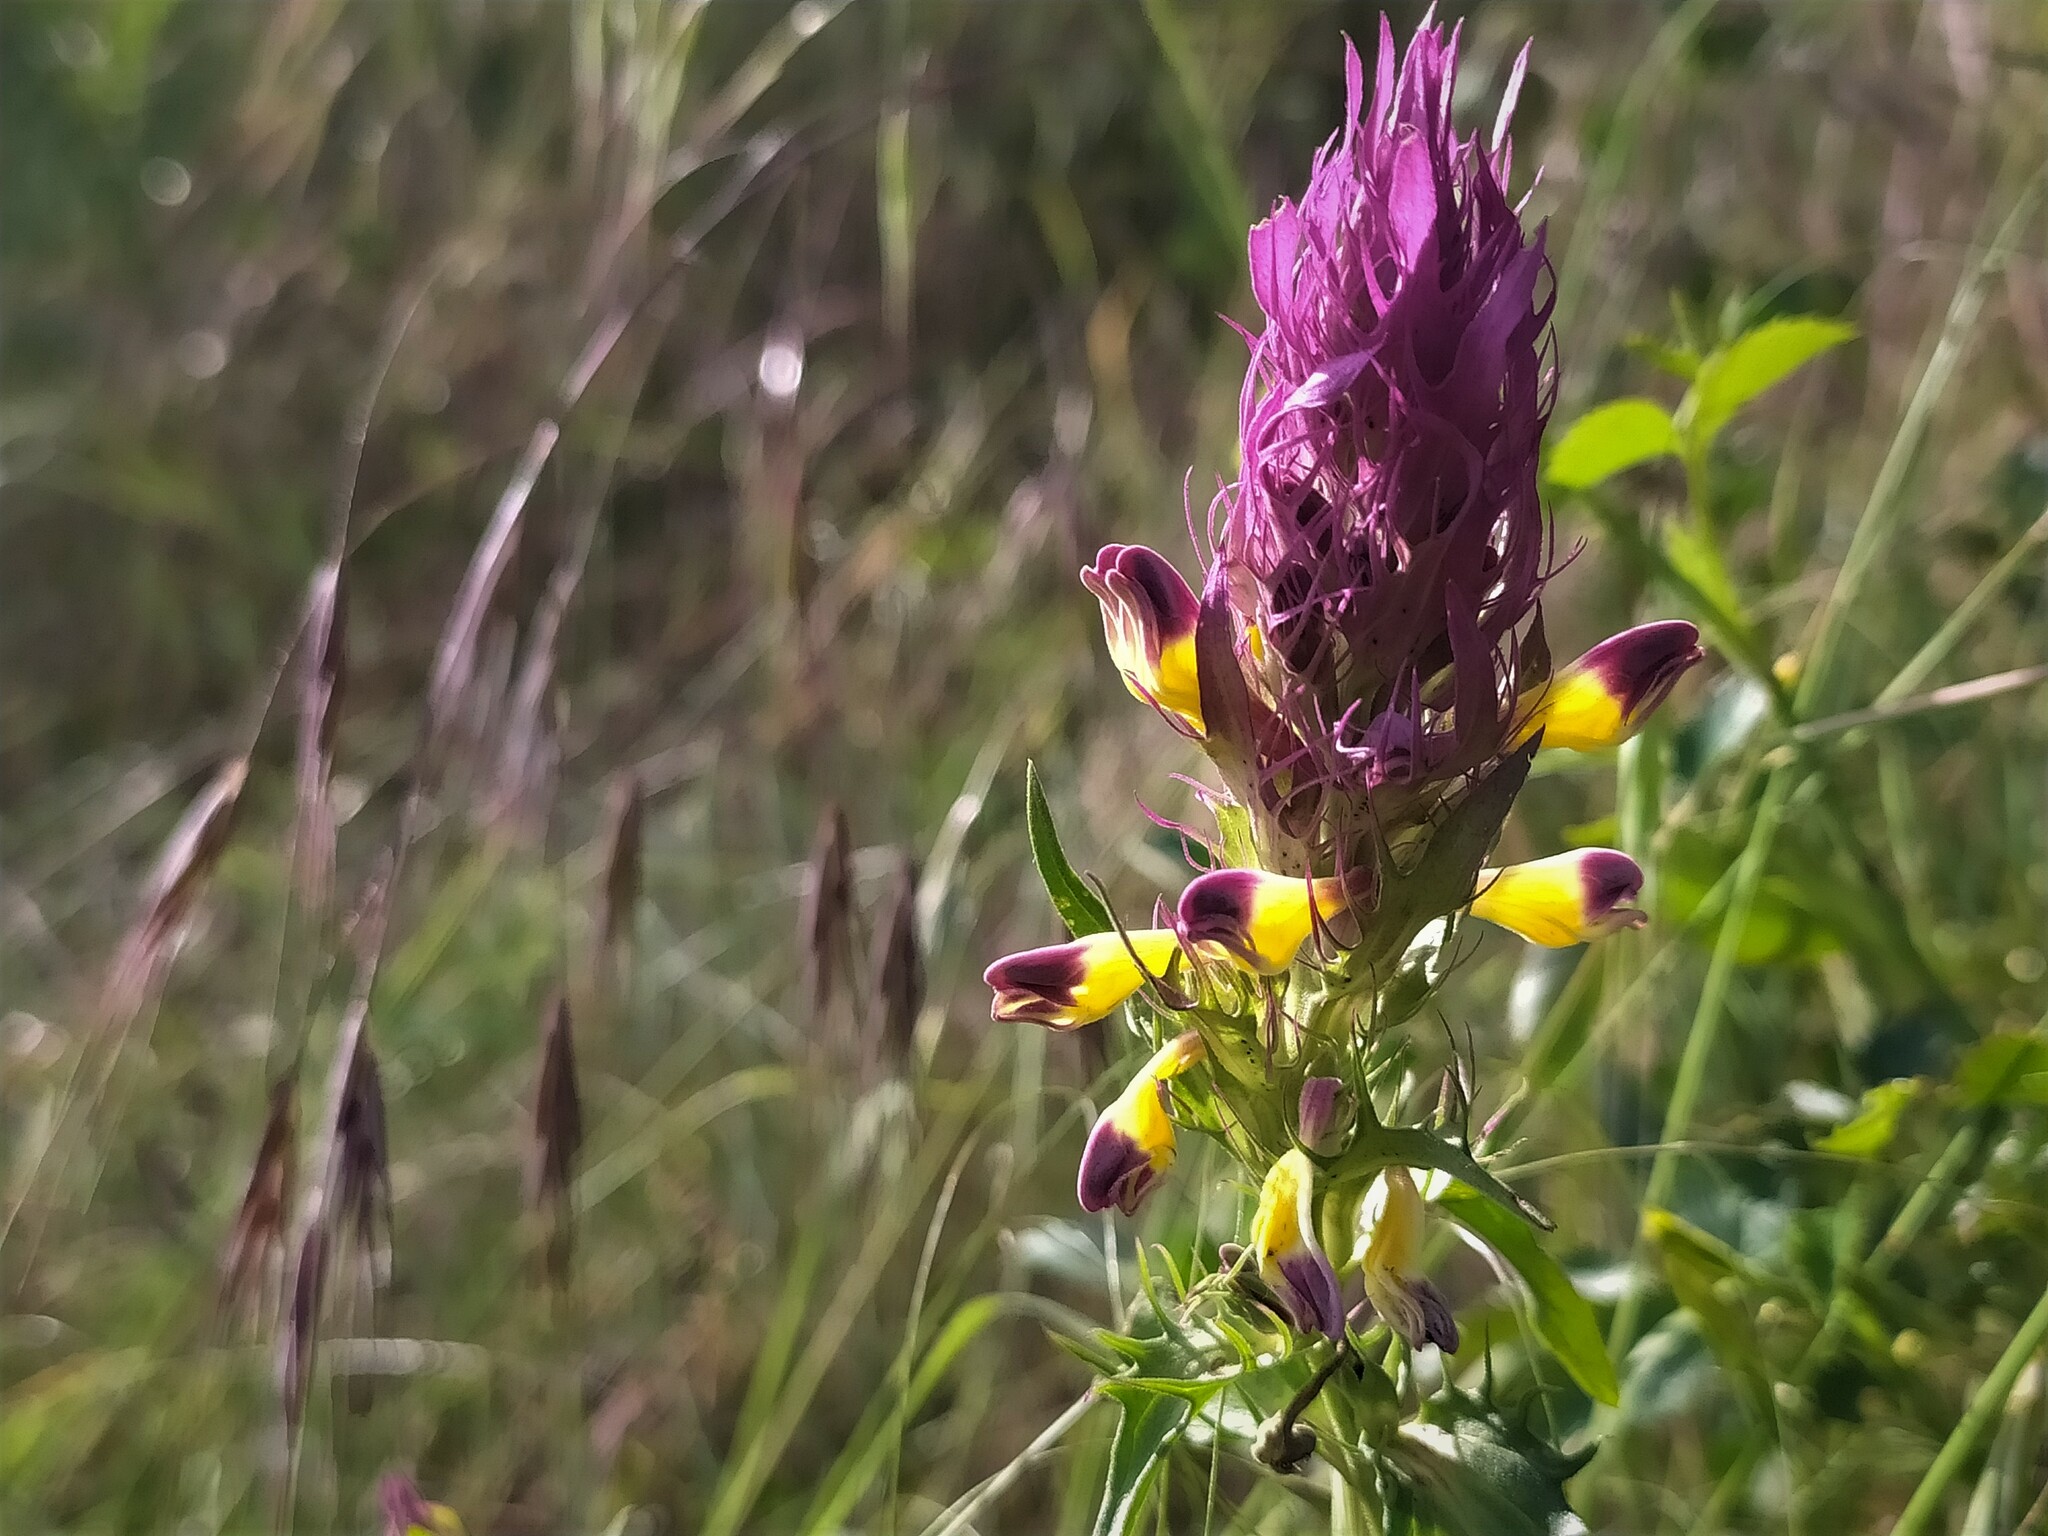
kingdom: Plantae
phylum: Tracheophyta
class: Magnoliopsida
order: Lamiales
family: Orobanchaceae
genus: Melampyrum
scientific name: Melampyrum arvense
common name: Field cow-wheat
